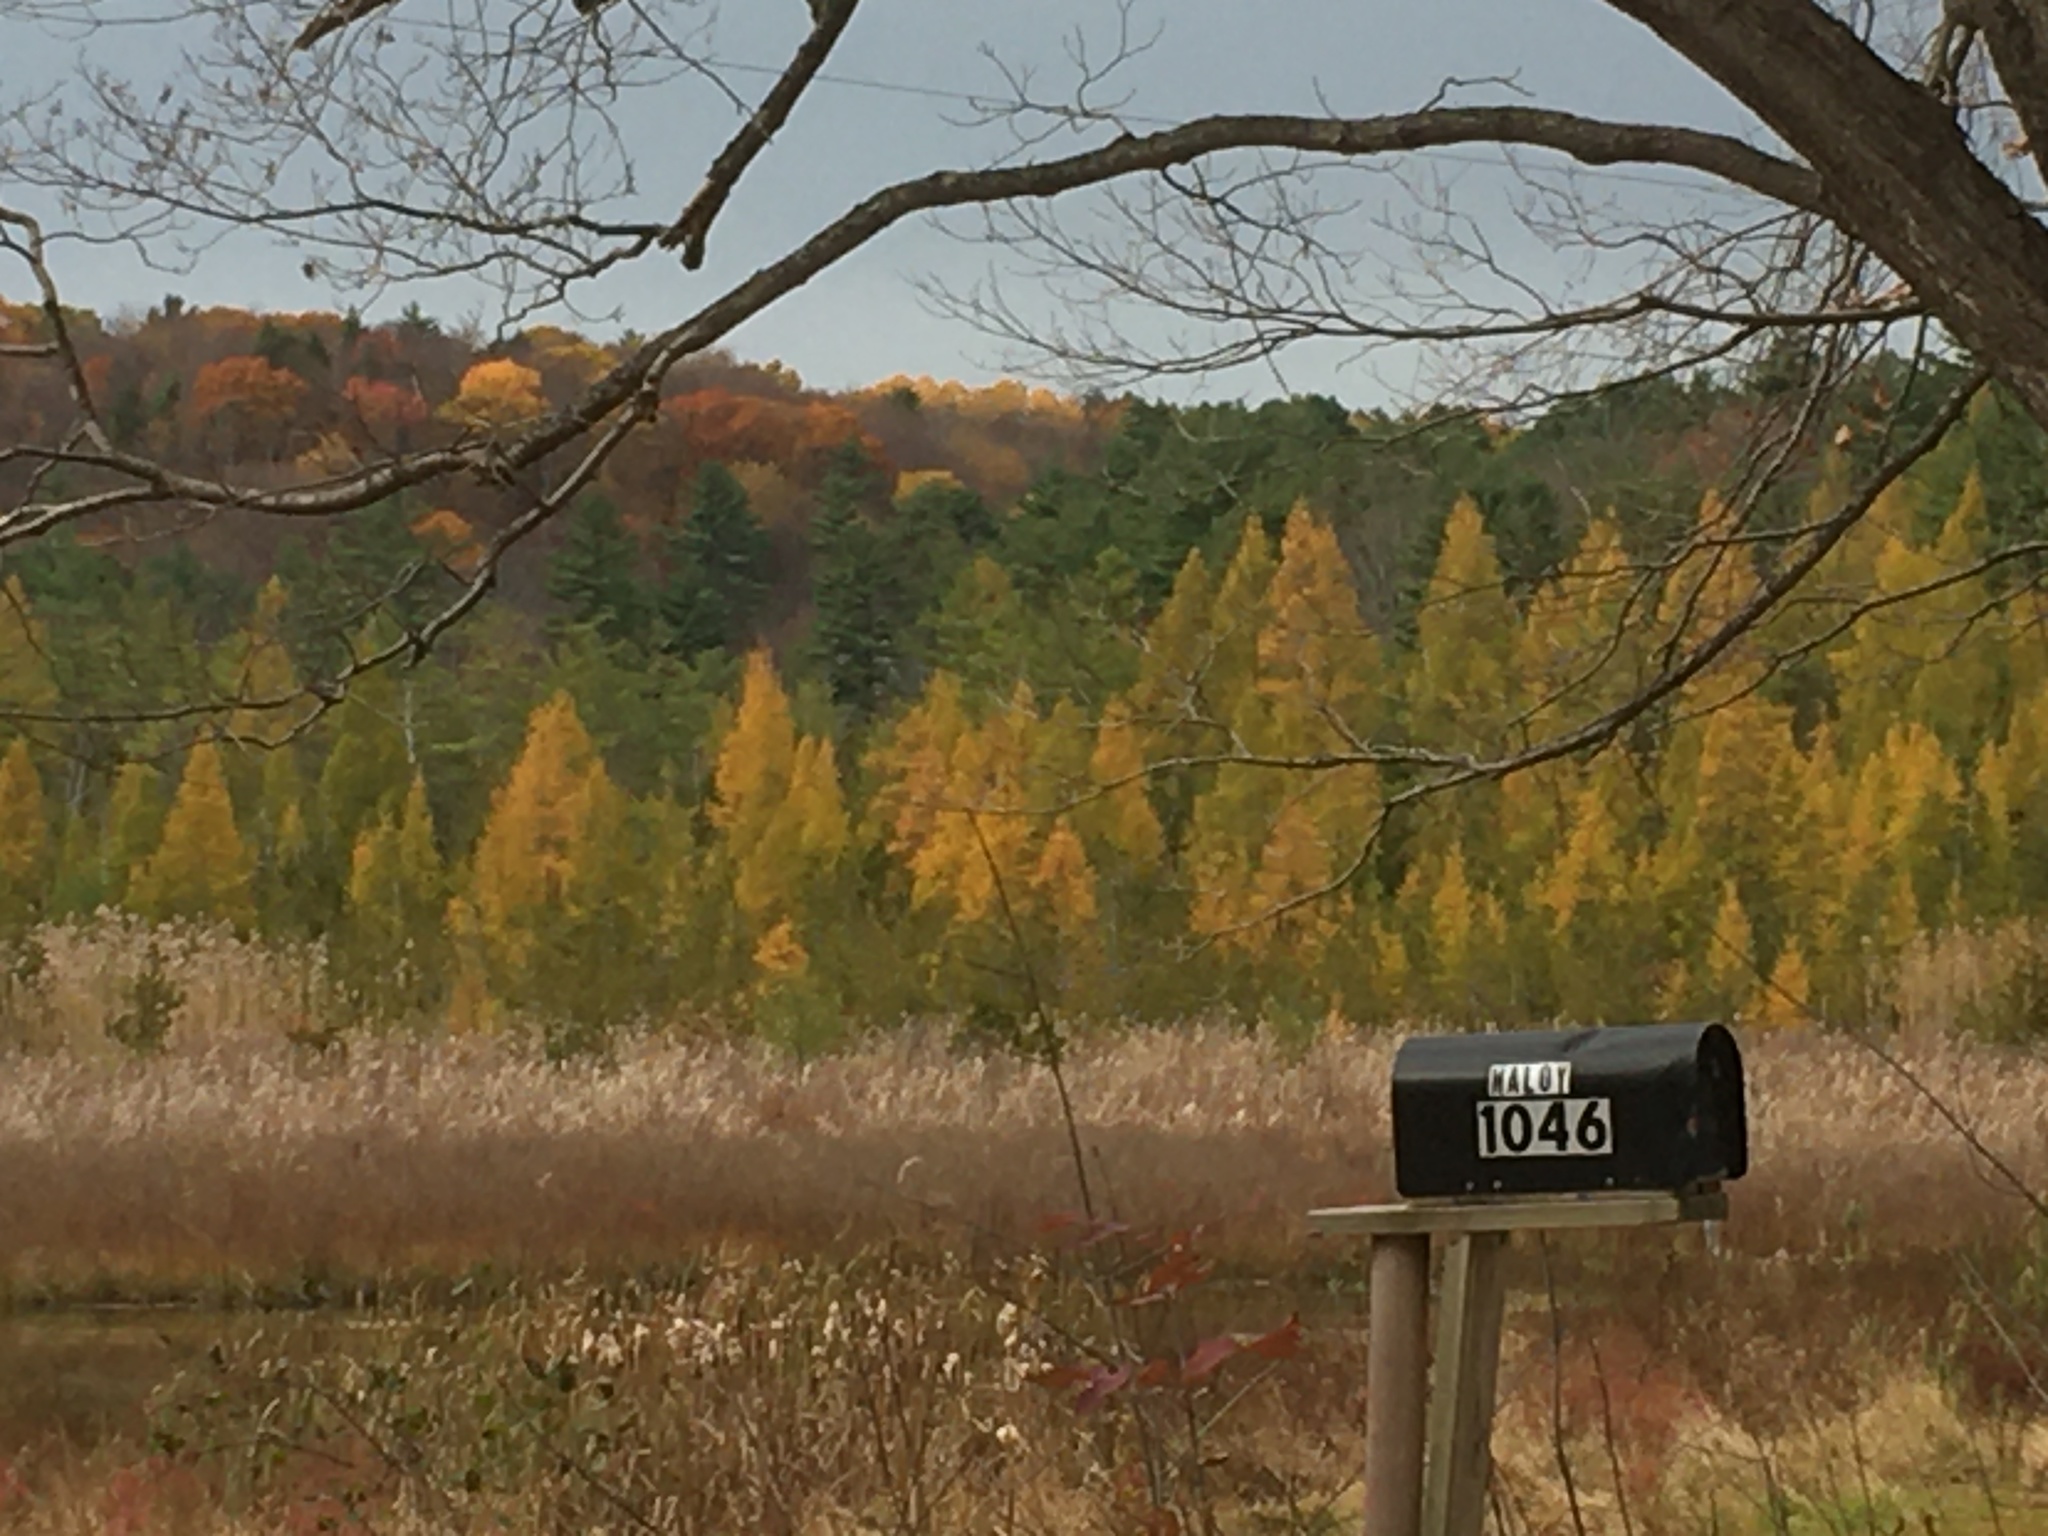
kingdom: Plantae
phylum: Tracheophyta
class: Pinopsida
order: Pinales
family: Pinaceae
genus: Larix
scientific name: Larix laricina
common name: American larch
